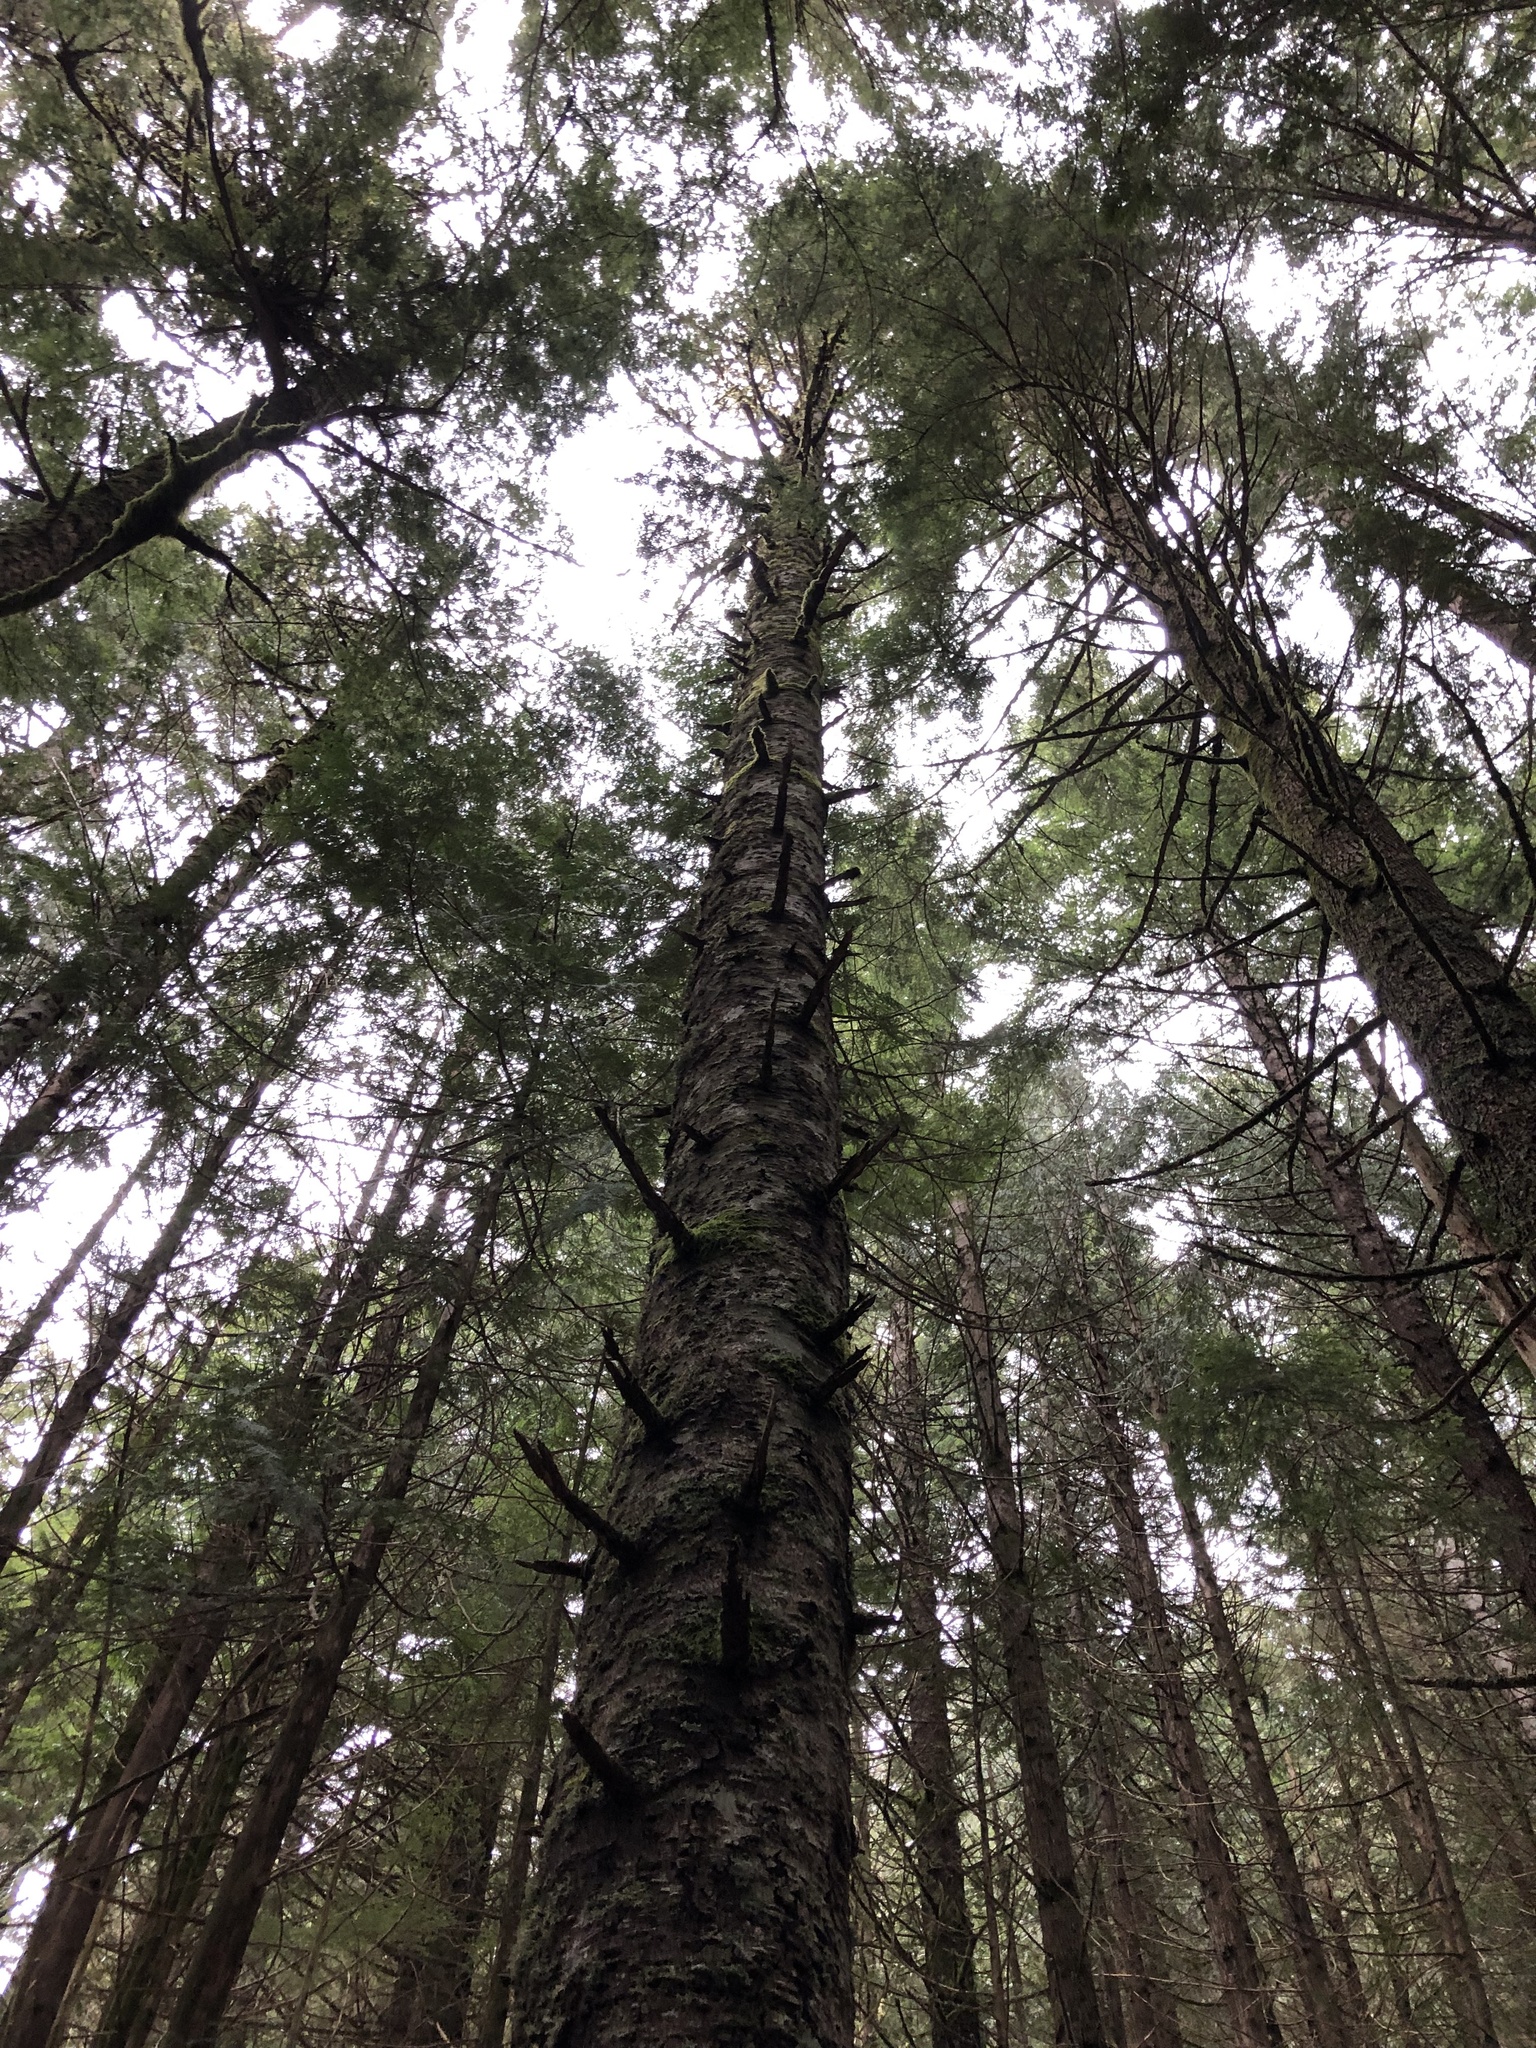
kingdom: Plantae
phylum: Tracheophyta
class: Pinopsida
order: Pinales
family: Pinaceae
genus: Abies
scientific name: Abies amabilis
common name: Pacific silver fir
